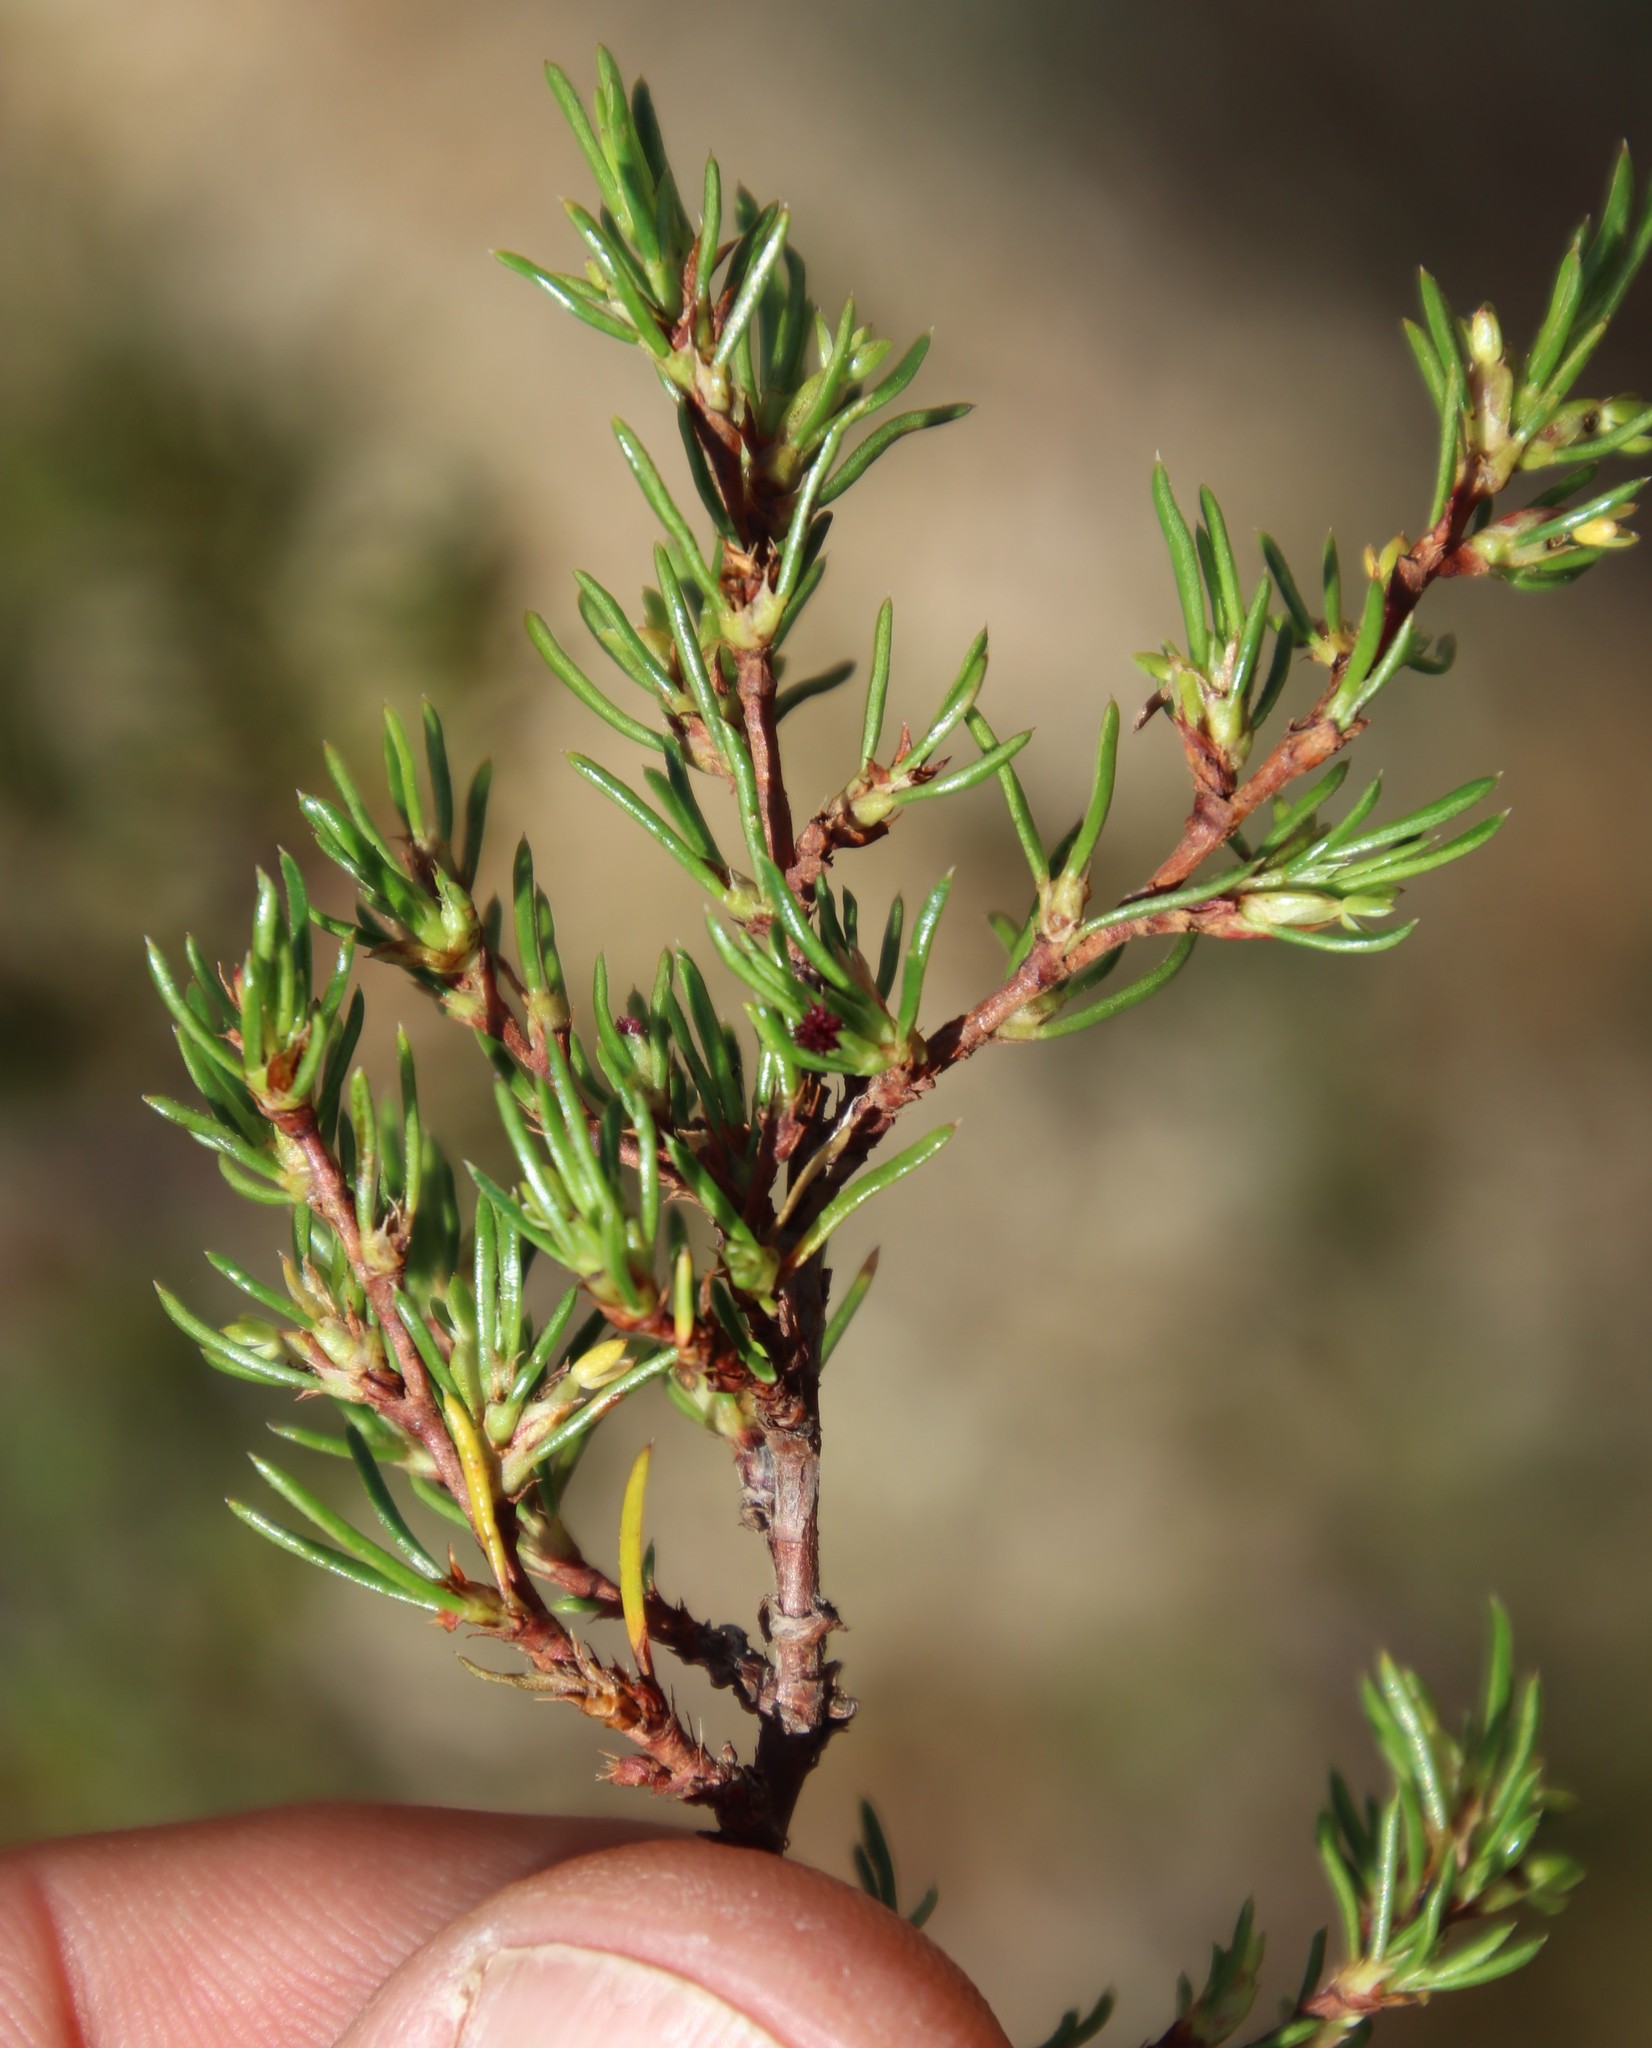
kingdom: Plantae
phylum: Tracheophyta
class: Magnoliopsida
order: Rosales
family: Rosaceae
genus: Cliffortia
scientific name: Cliffortia repens
